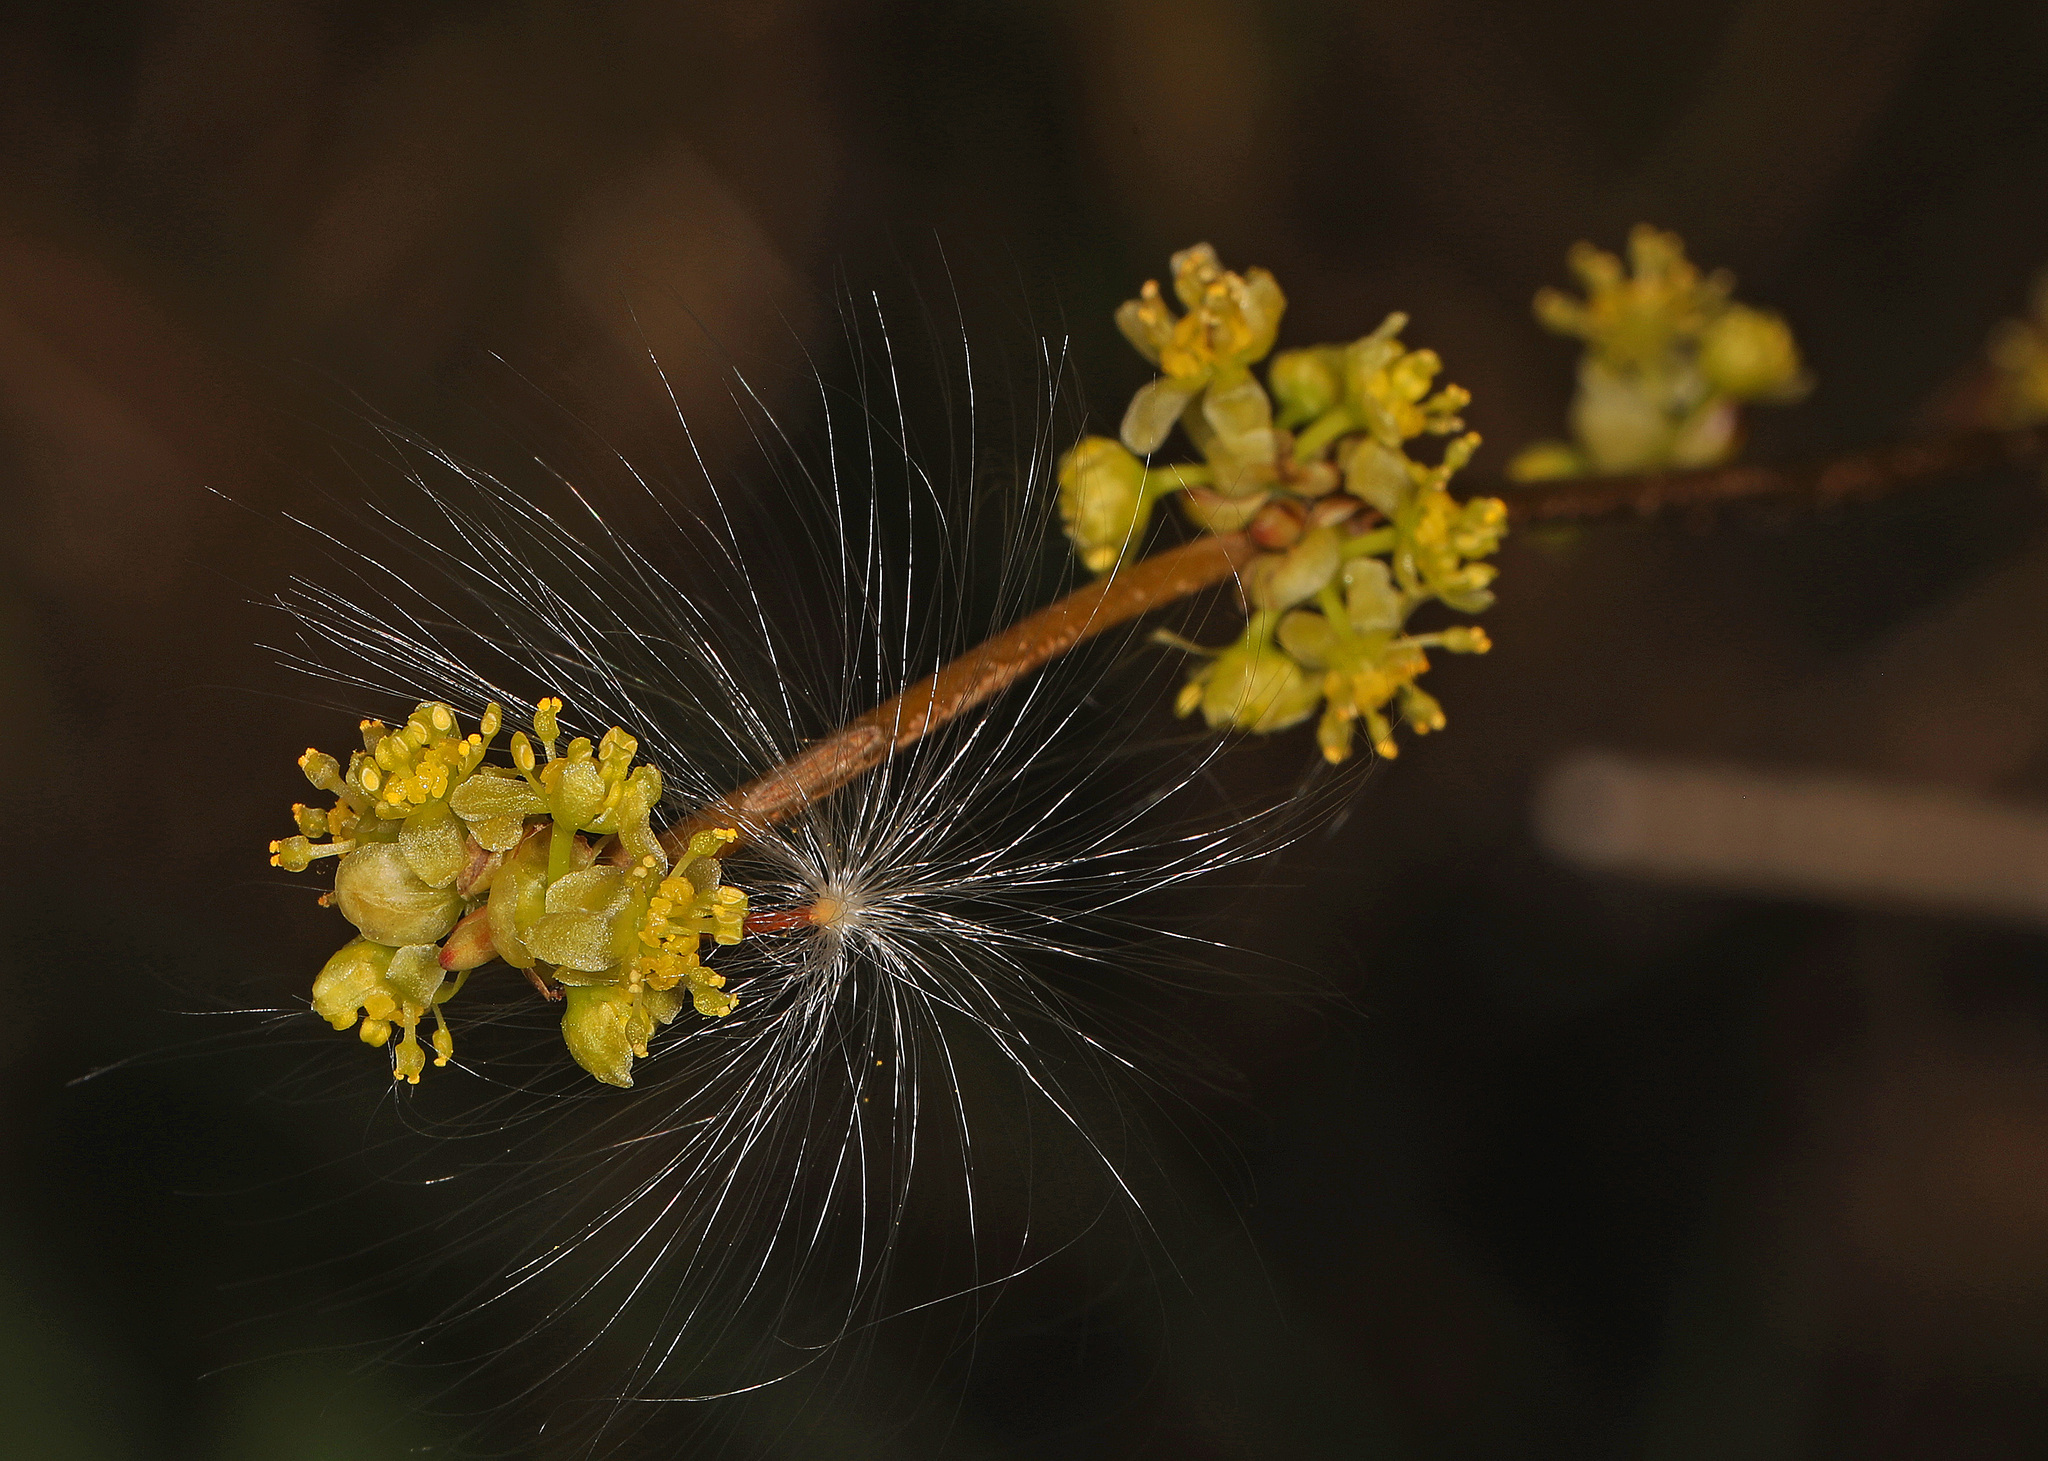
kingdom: Plantae
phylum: Tracheophyta
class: Magnoliopsida
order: Laurales
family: Lauraceae
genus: Lindera
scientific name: Lindera benzoin
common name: Spicebush
